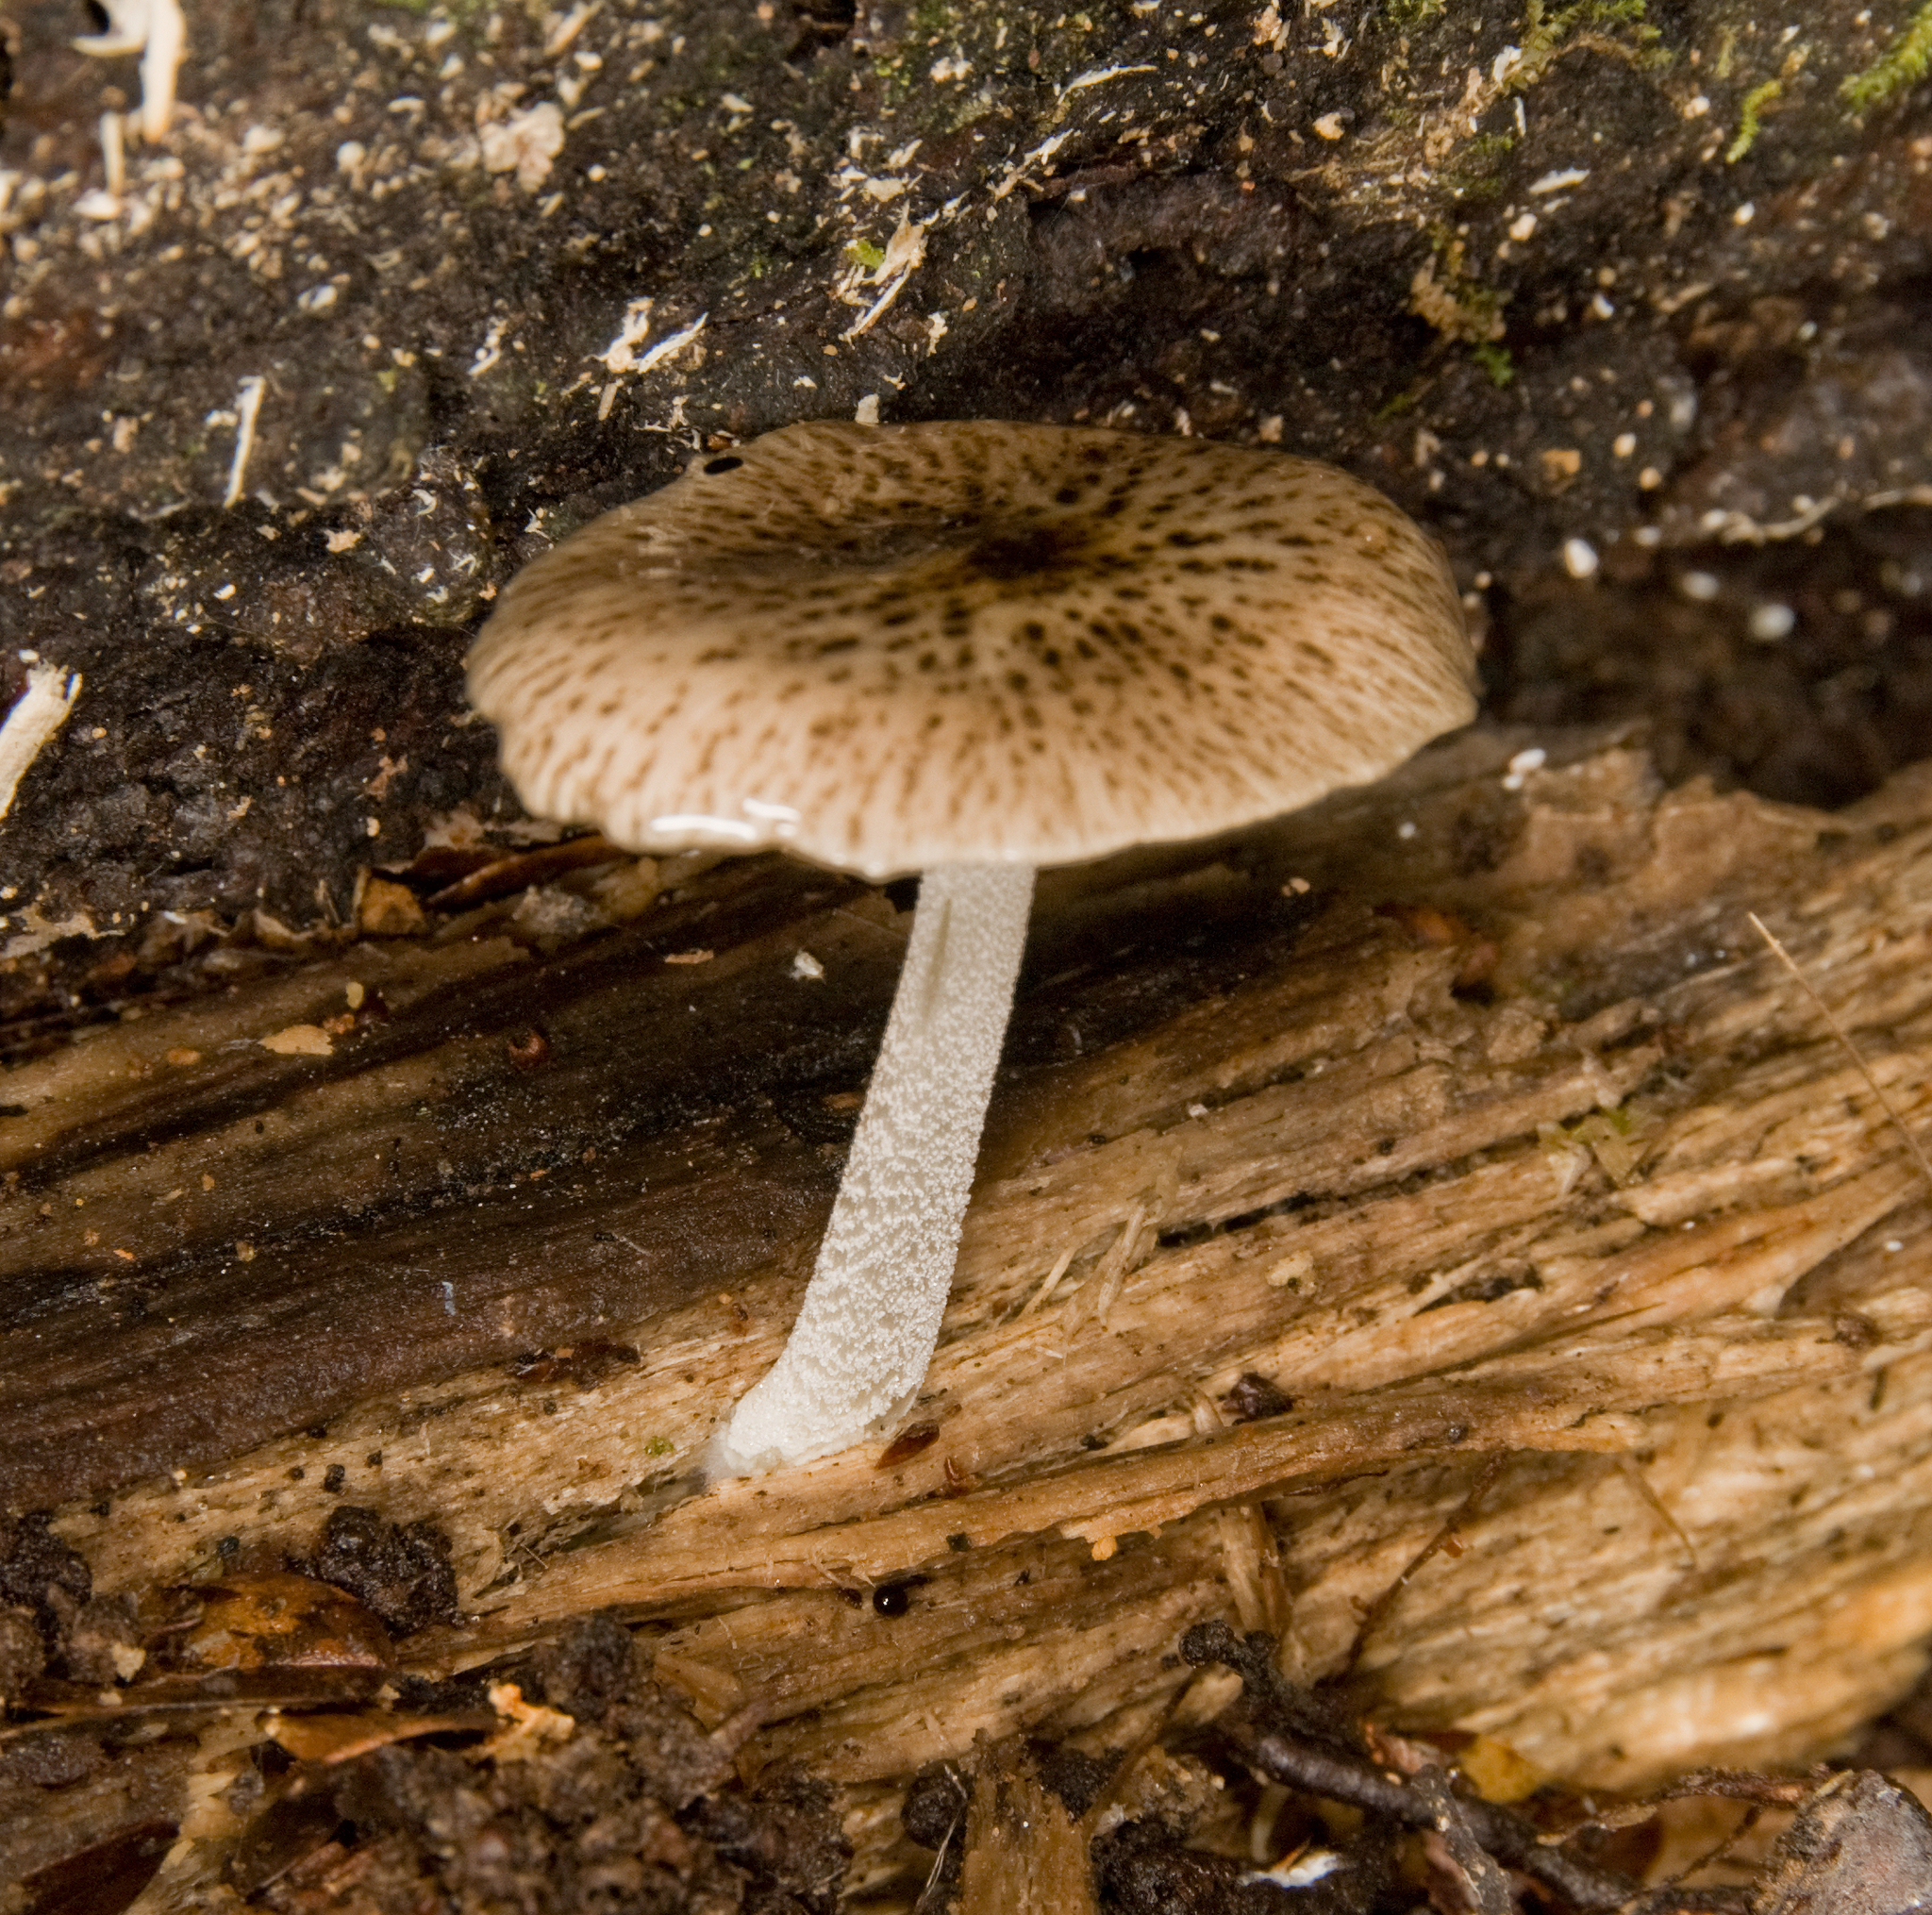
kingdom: Fungi
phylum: Basidiomycota
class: Agaricomycetes
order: Agaricales
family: Bolbitiaceae
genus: Bolbitius
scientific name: Bolbitius muscicola
